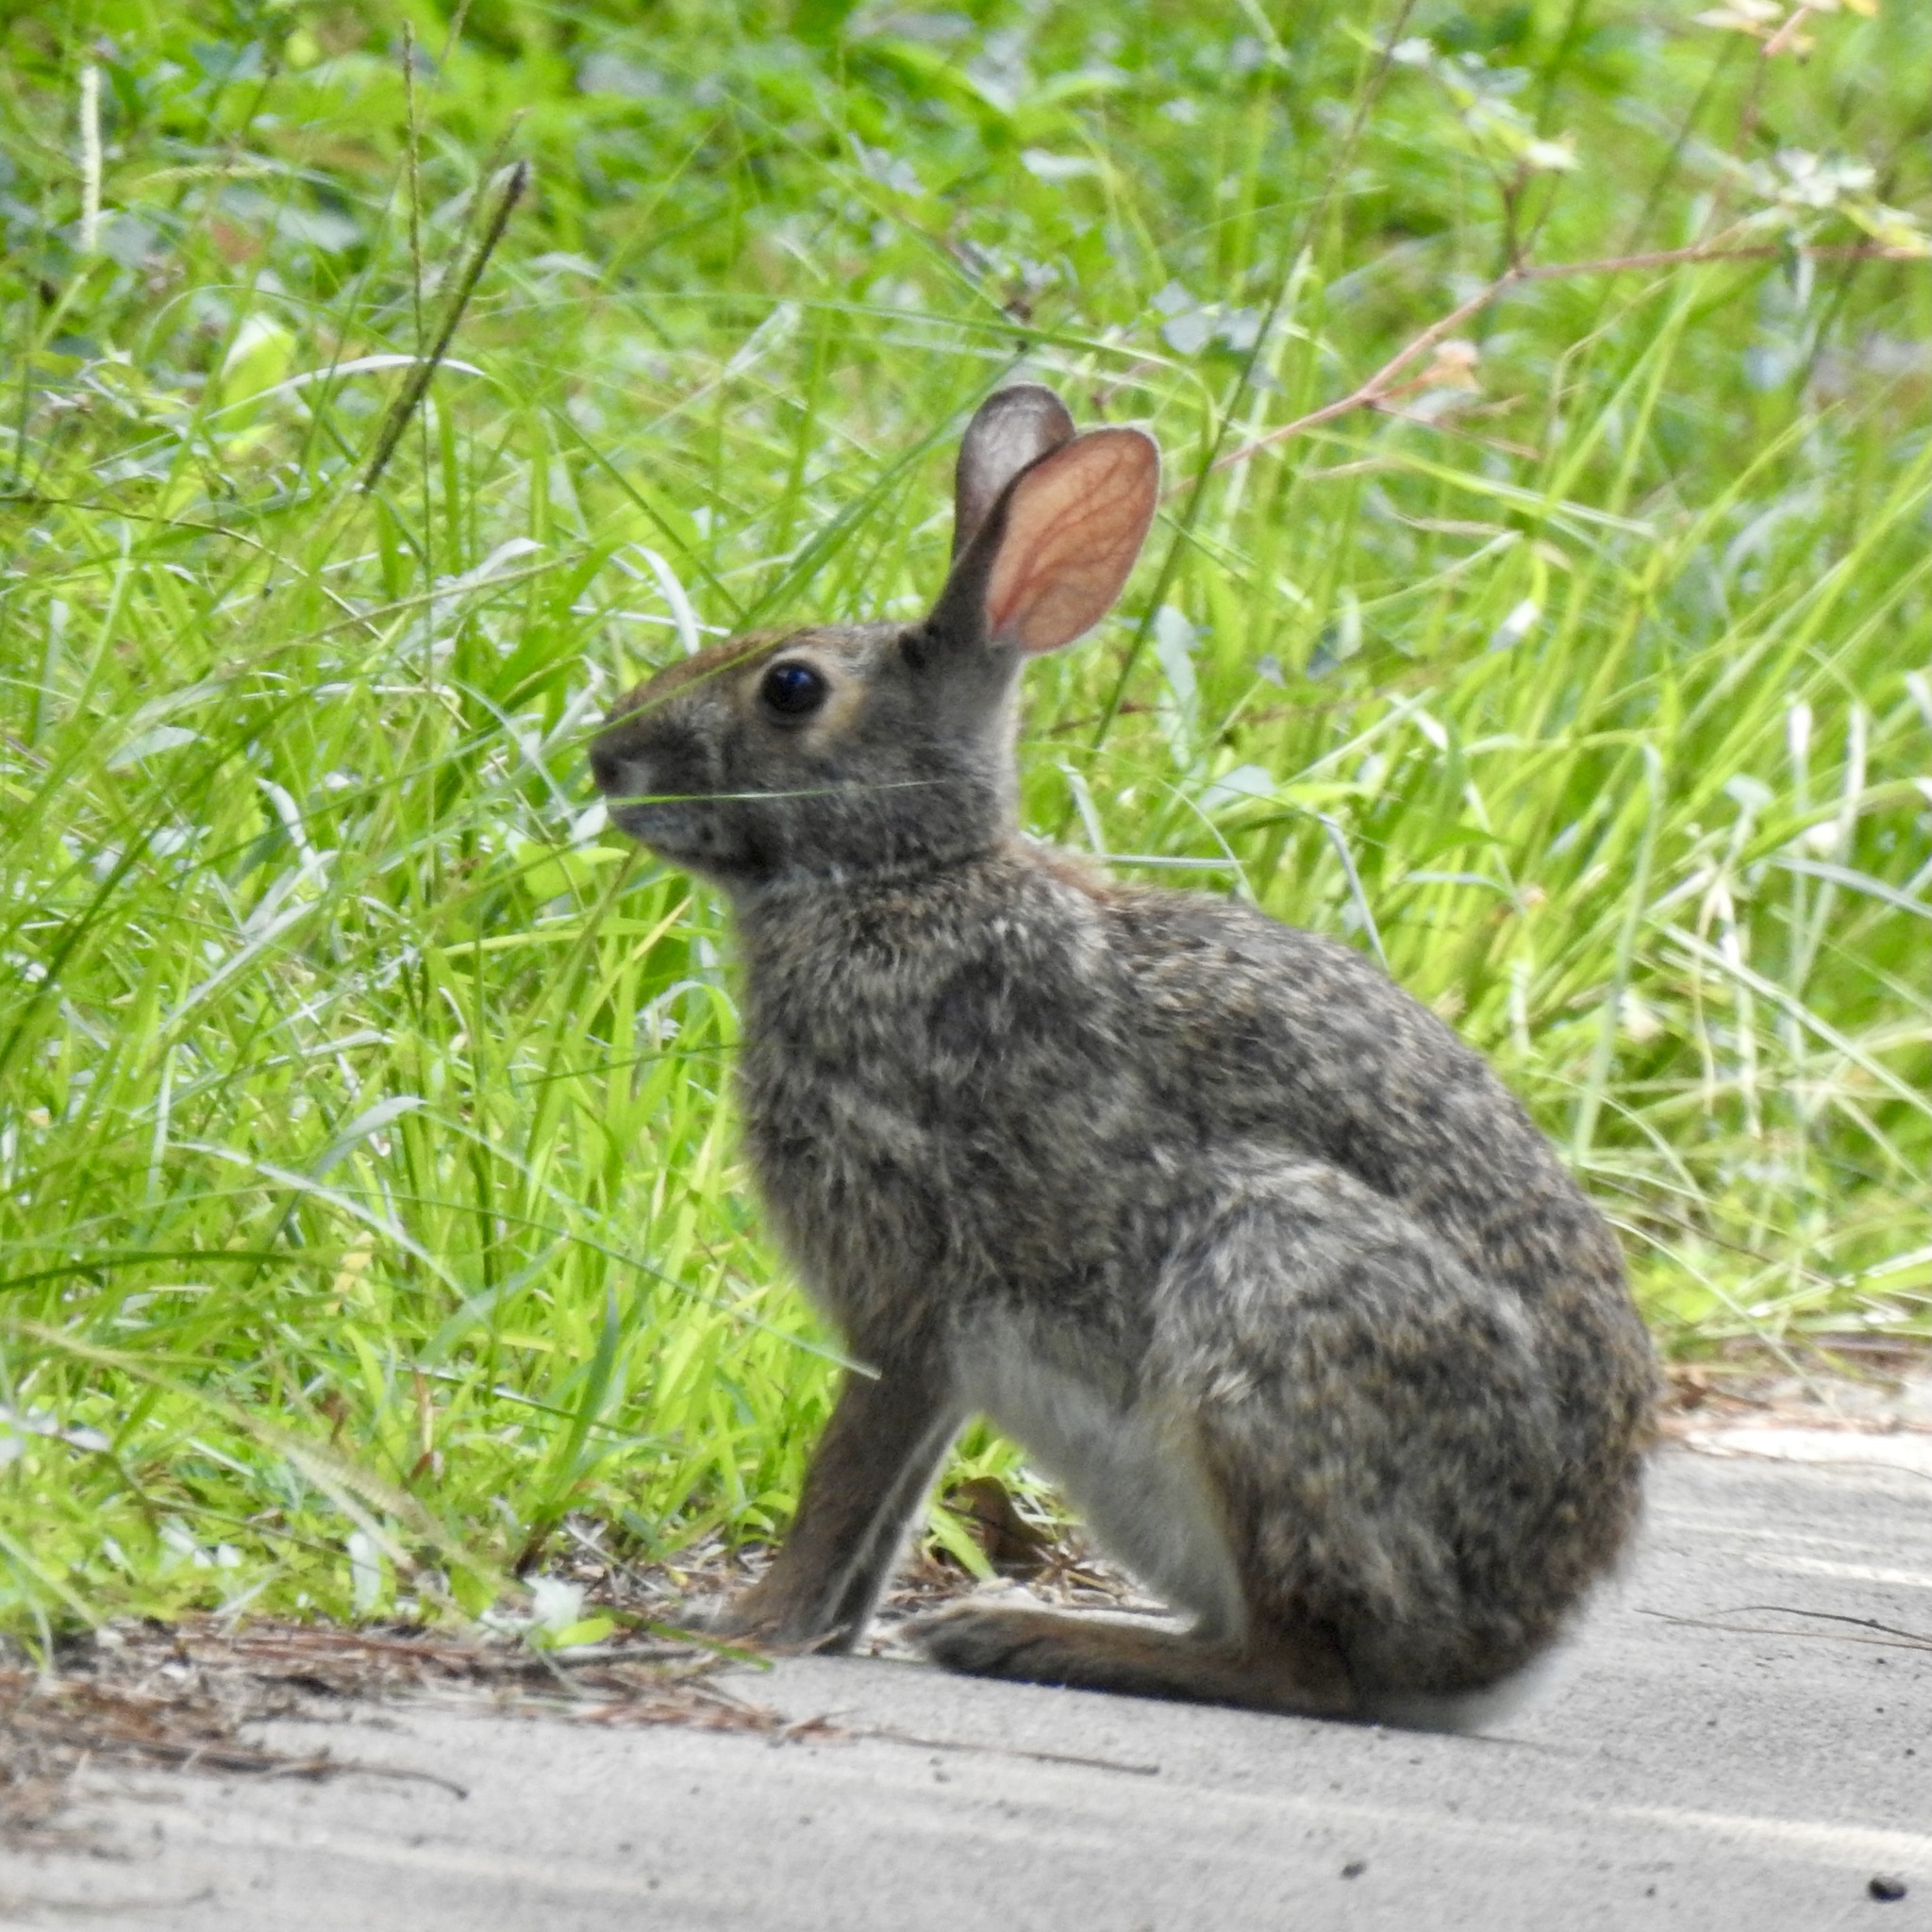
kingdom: Animalia
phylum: Chordata
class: Mammalia
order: Lagomorpha
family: Leporidae
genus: Sylvilagus
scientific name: Sylvilagus aquaticus
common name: Swamp rabbit
